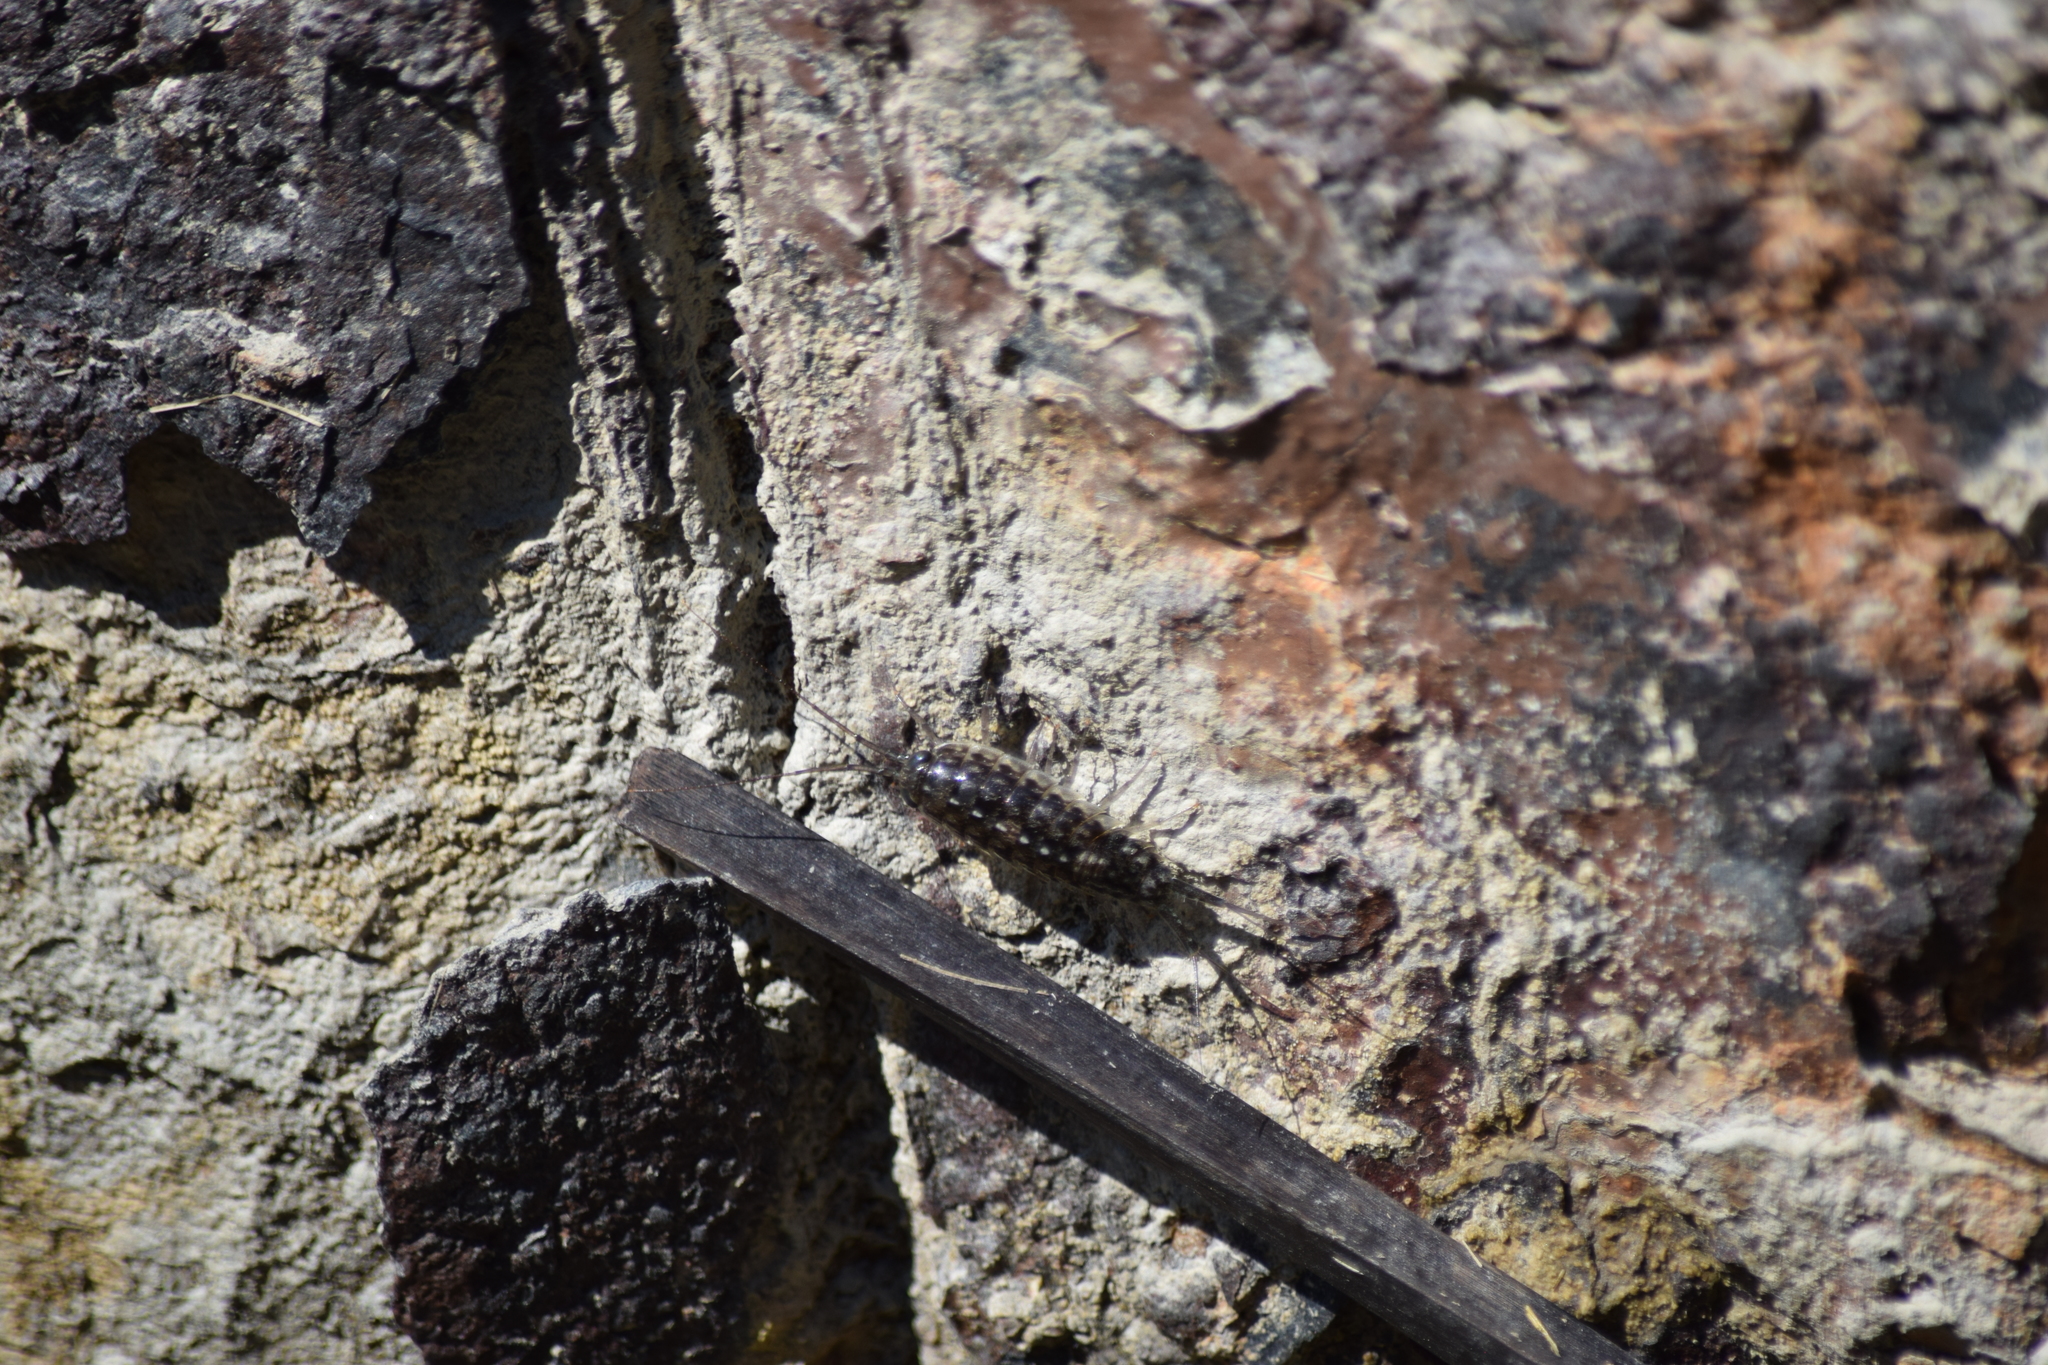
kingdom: Animalia
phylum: Arthropoda
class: Malacostraca
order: Isopoda
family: Ligiidae
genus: Ligia
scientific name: Ligia exotica
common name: Wharf roach
